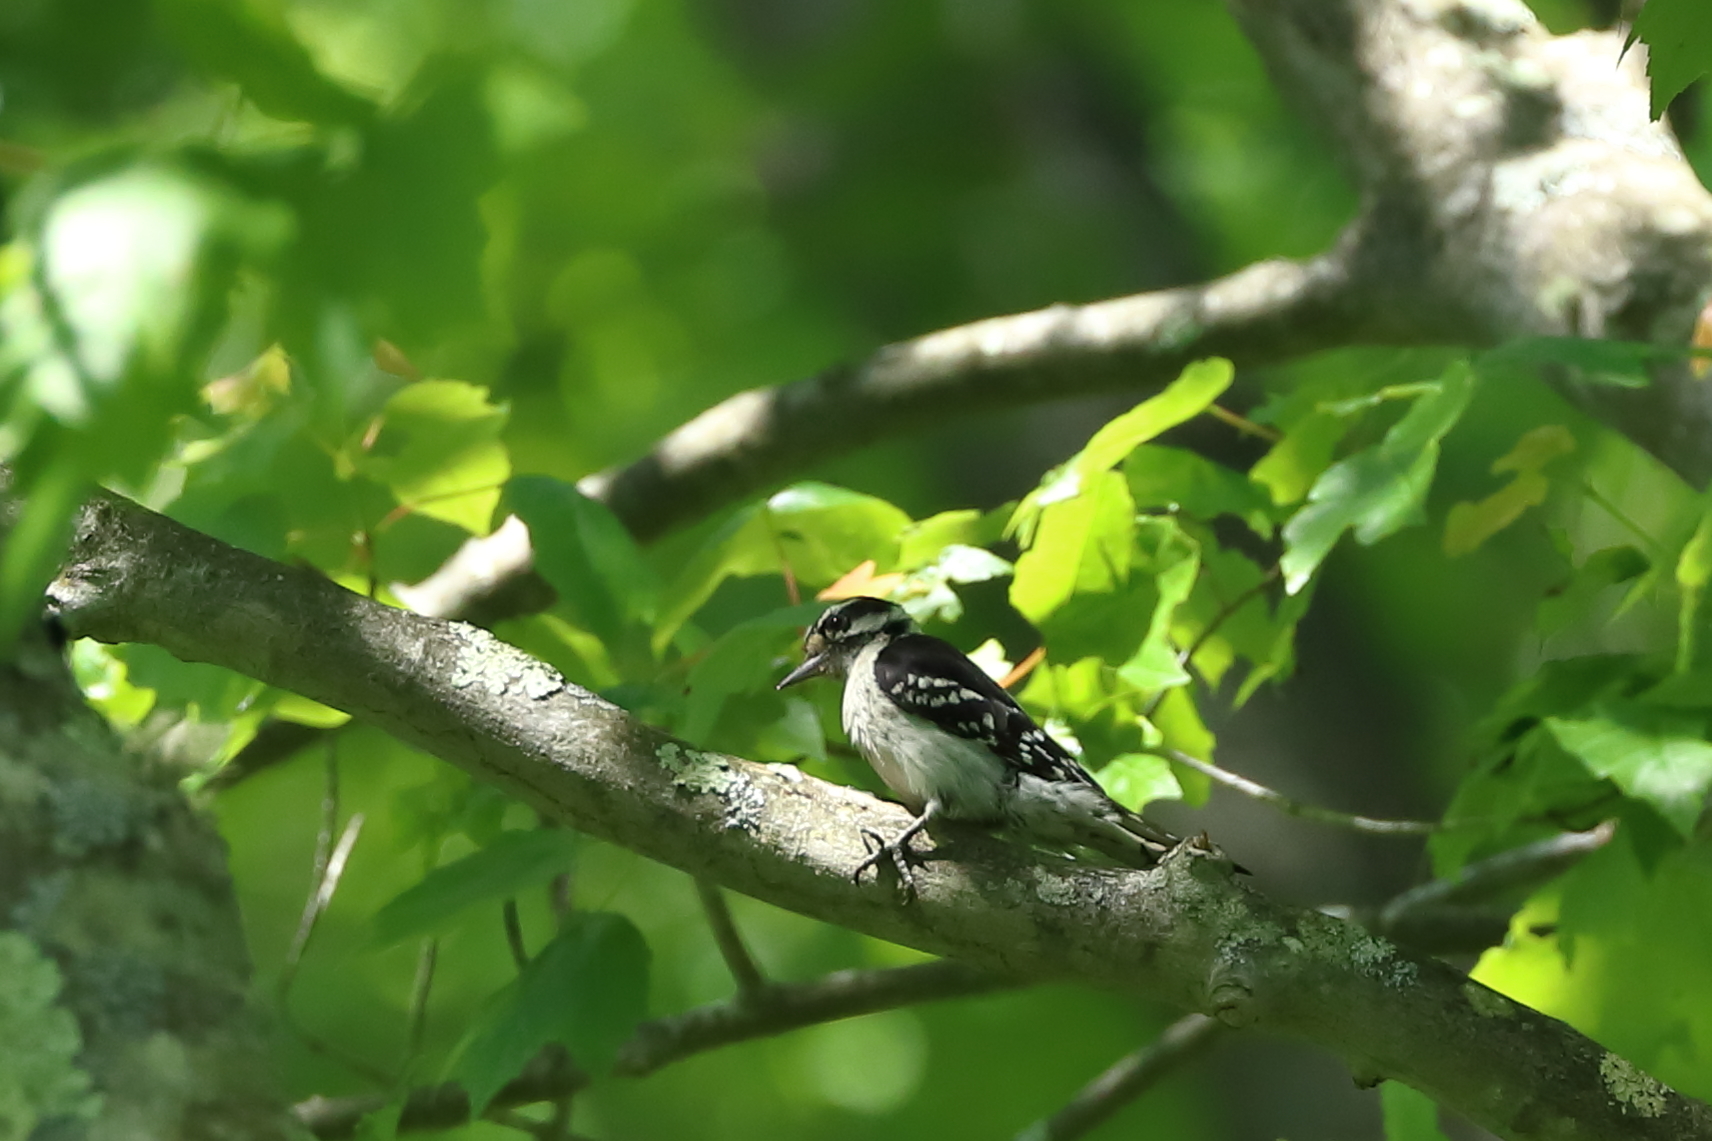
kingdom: Animalia
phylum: Chordata
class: Aves
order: Piciformes
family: Picidae
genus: Dryobates
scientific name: Dryobates pubescens
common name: Downy woodpecker
